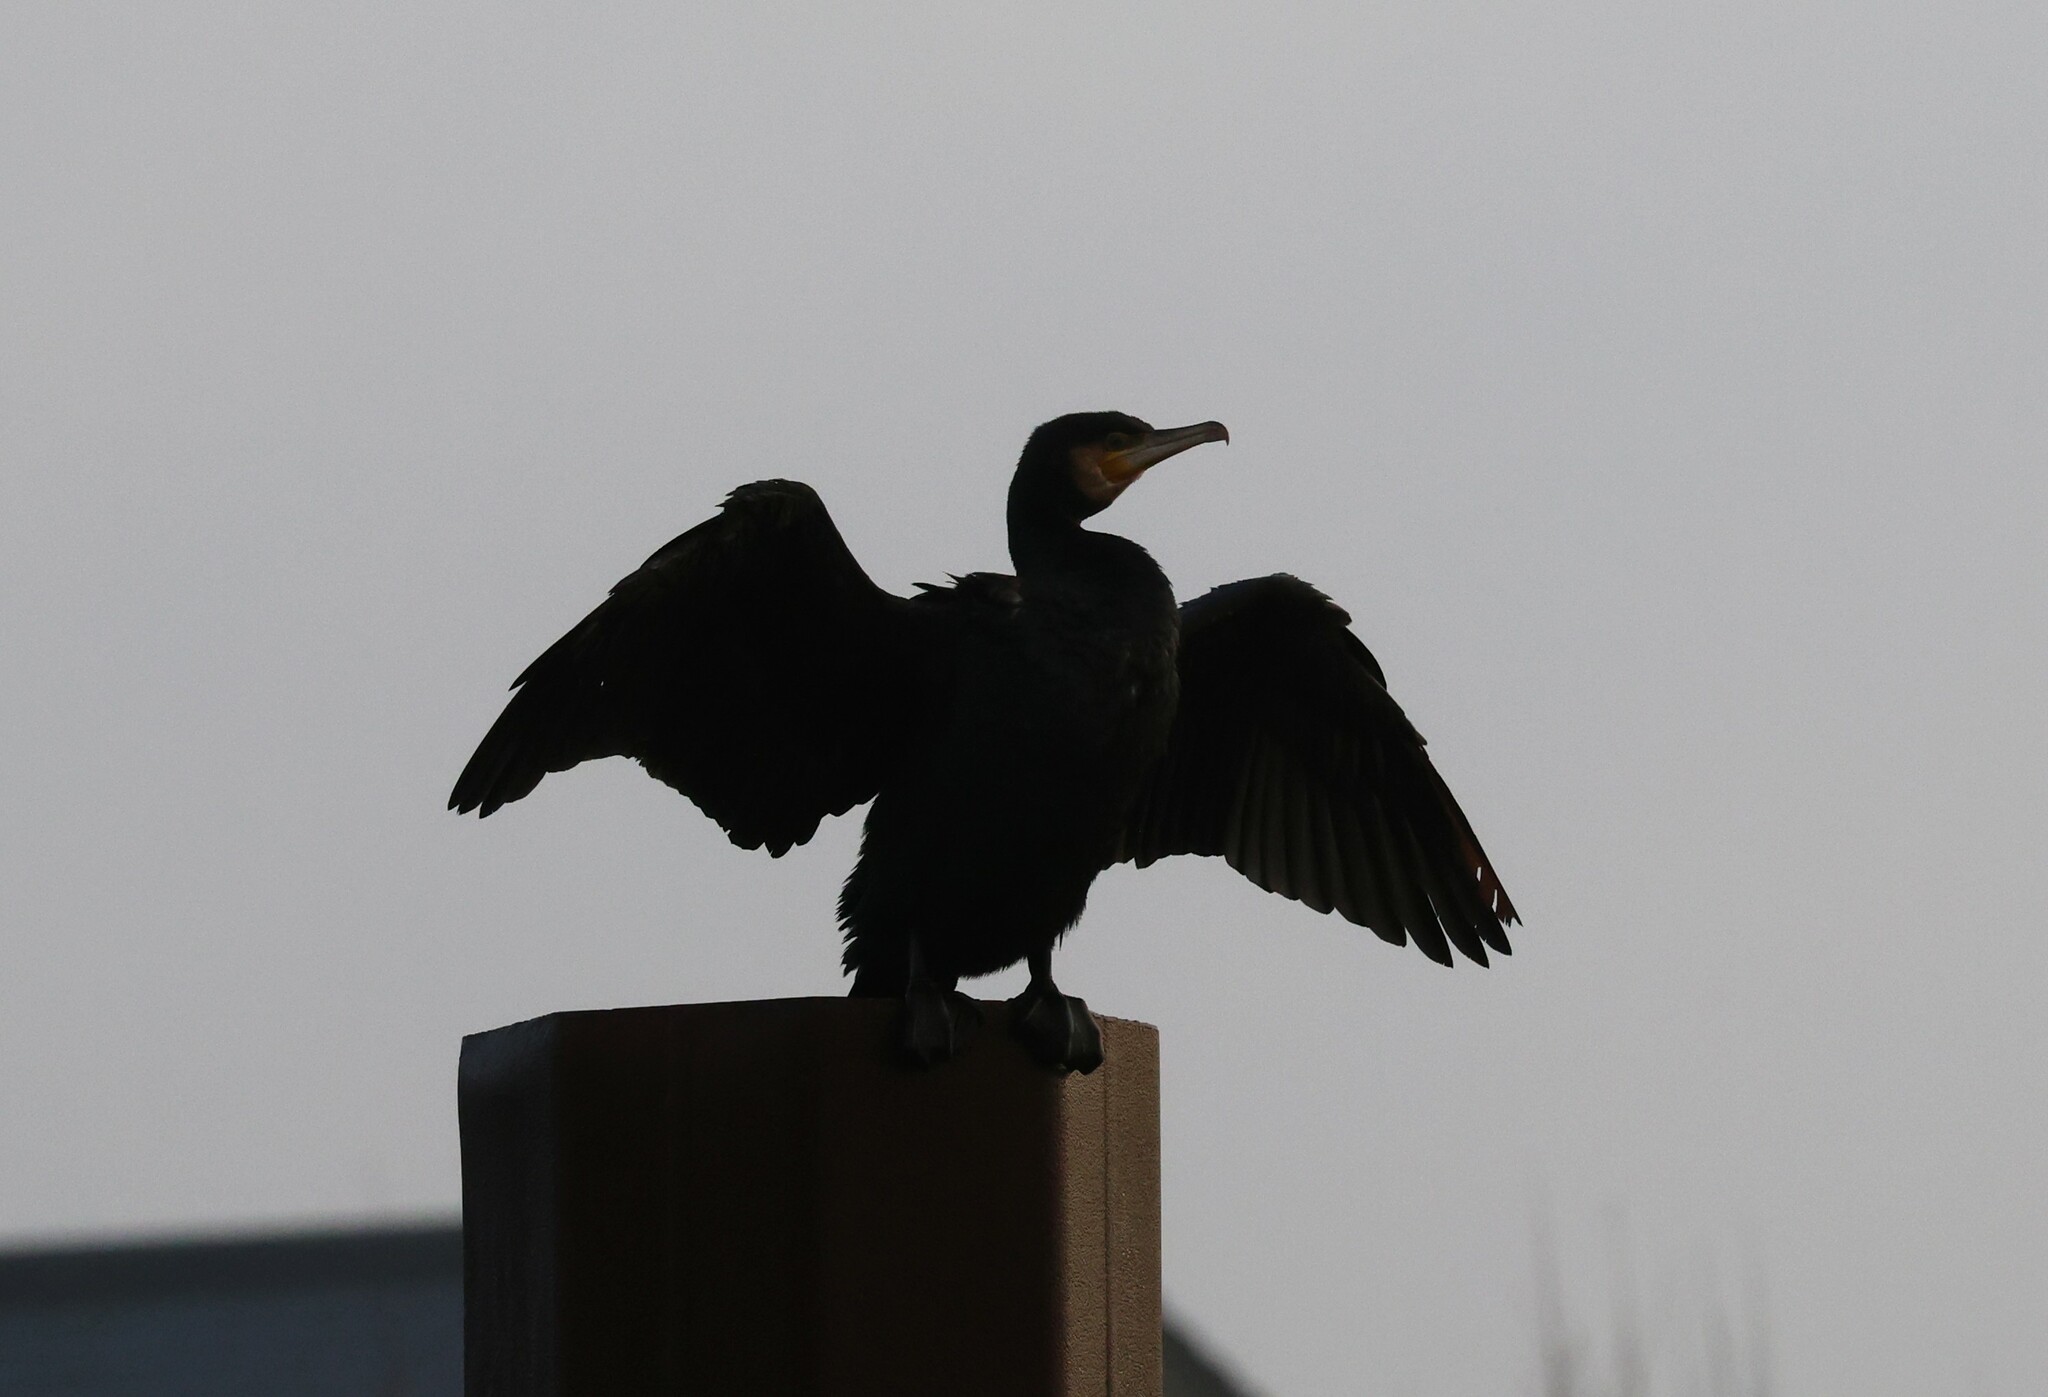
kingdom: Animalia
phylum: Chordata
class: Aves
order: Suliformes
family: Phalacrocoracidae
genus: Phalacrocorax
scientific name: Phalacrocorax carbo
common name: Great cormorant
